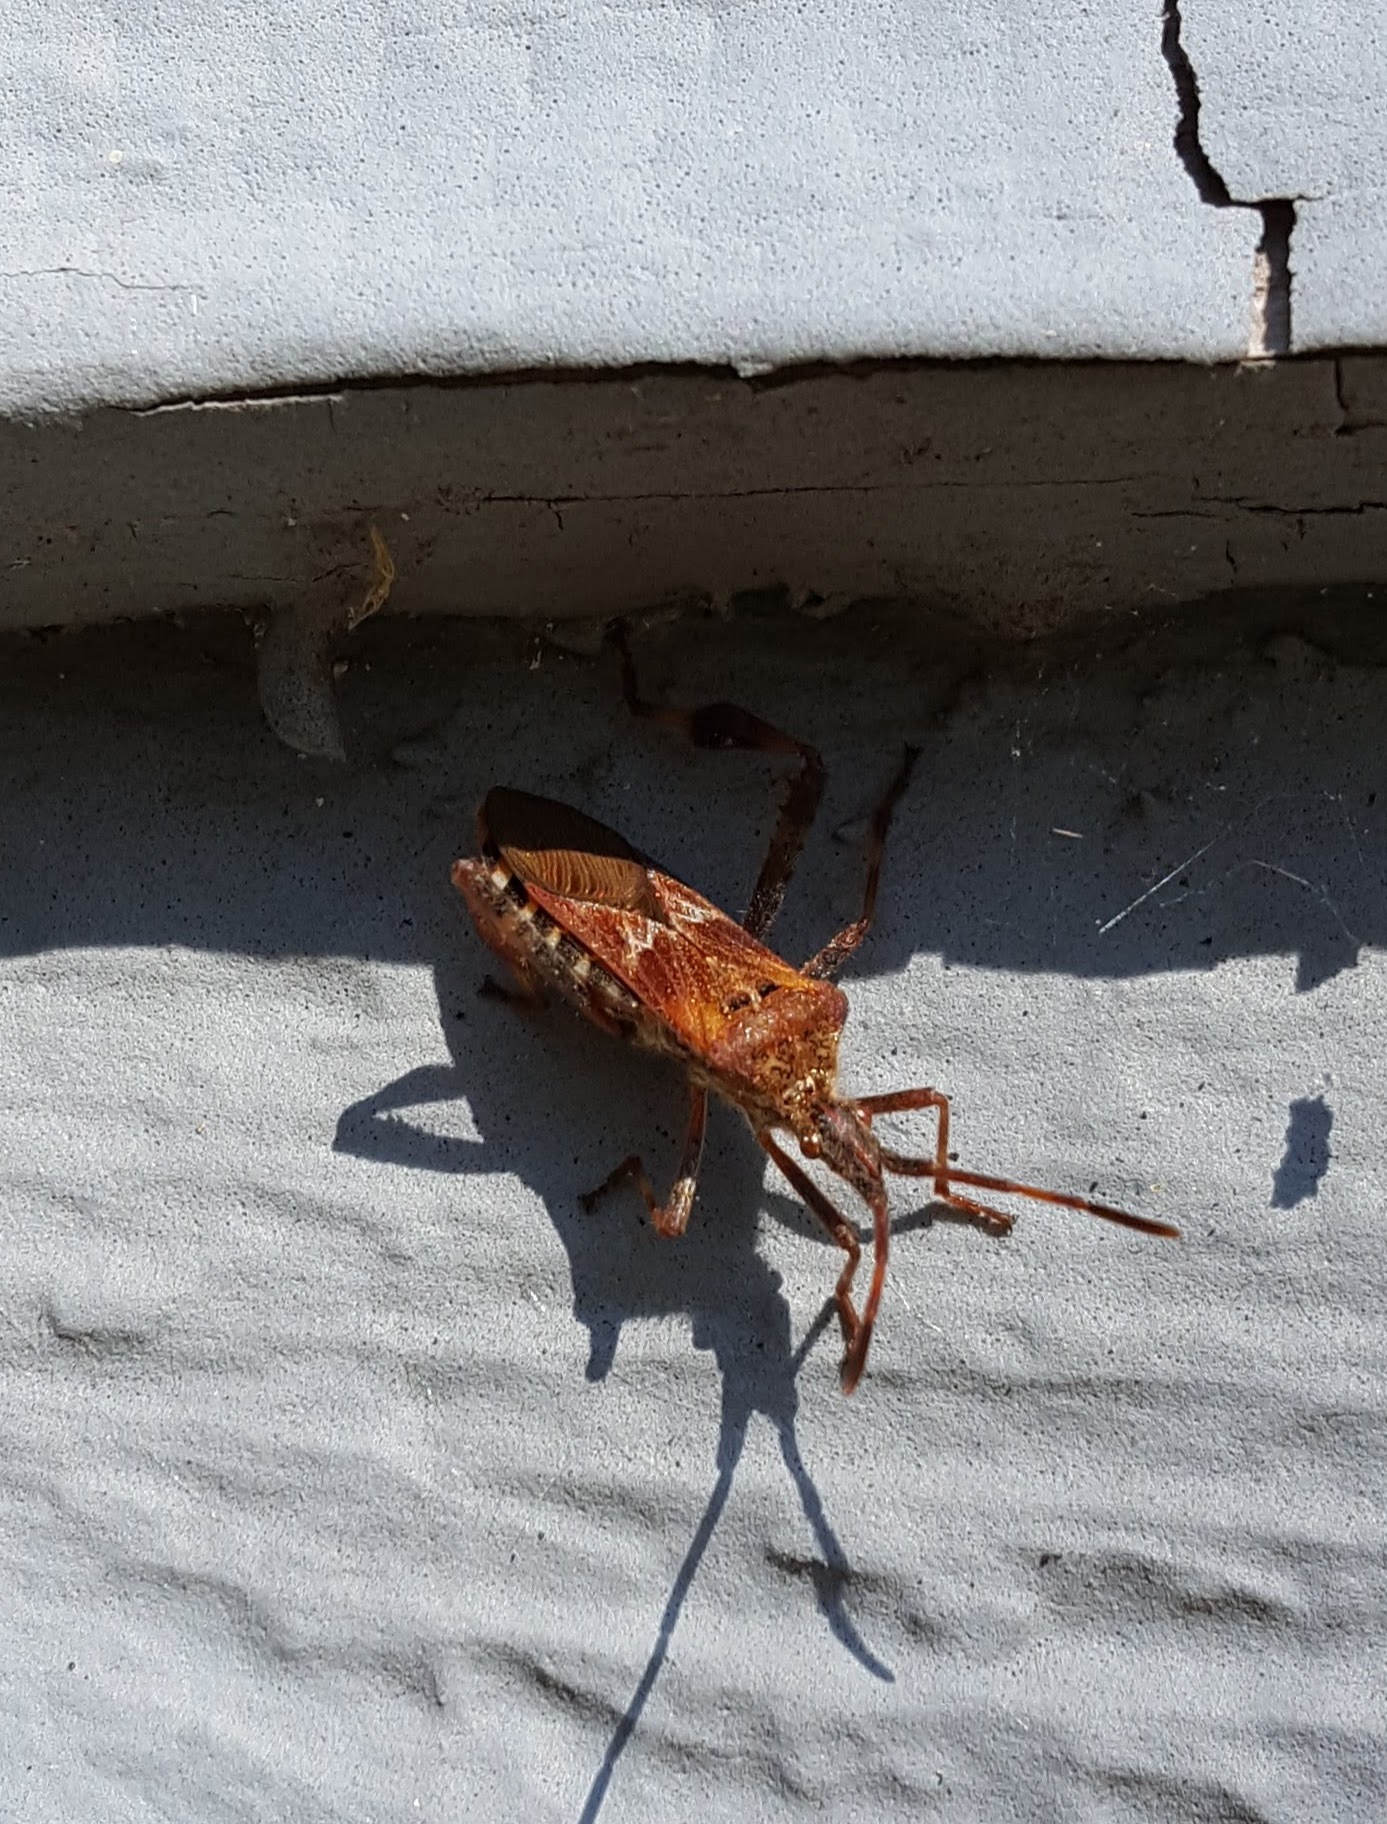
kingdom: Animalia
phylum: Arthropoda
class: Insecta
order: Hemiptera
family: Coreidae
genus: Leptoglossus
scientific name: Leptoglossus occidentalis
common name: Western conifer-seed bug
